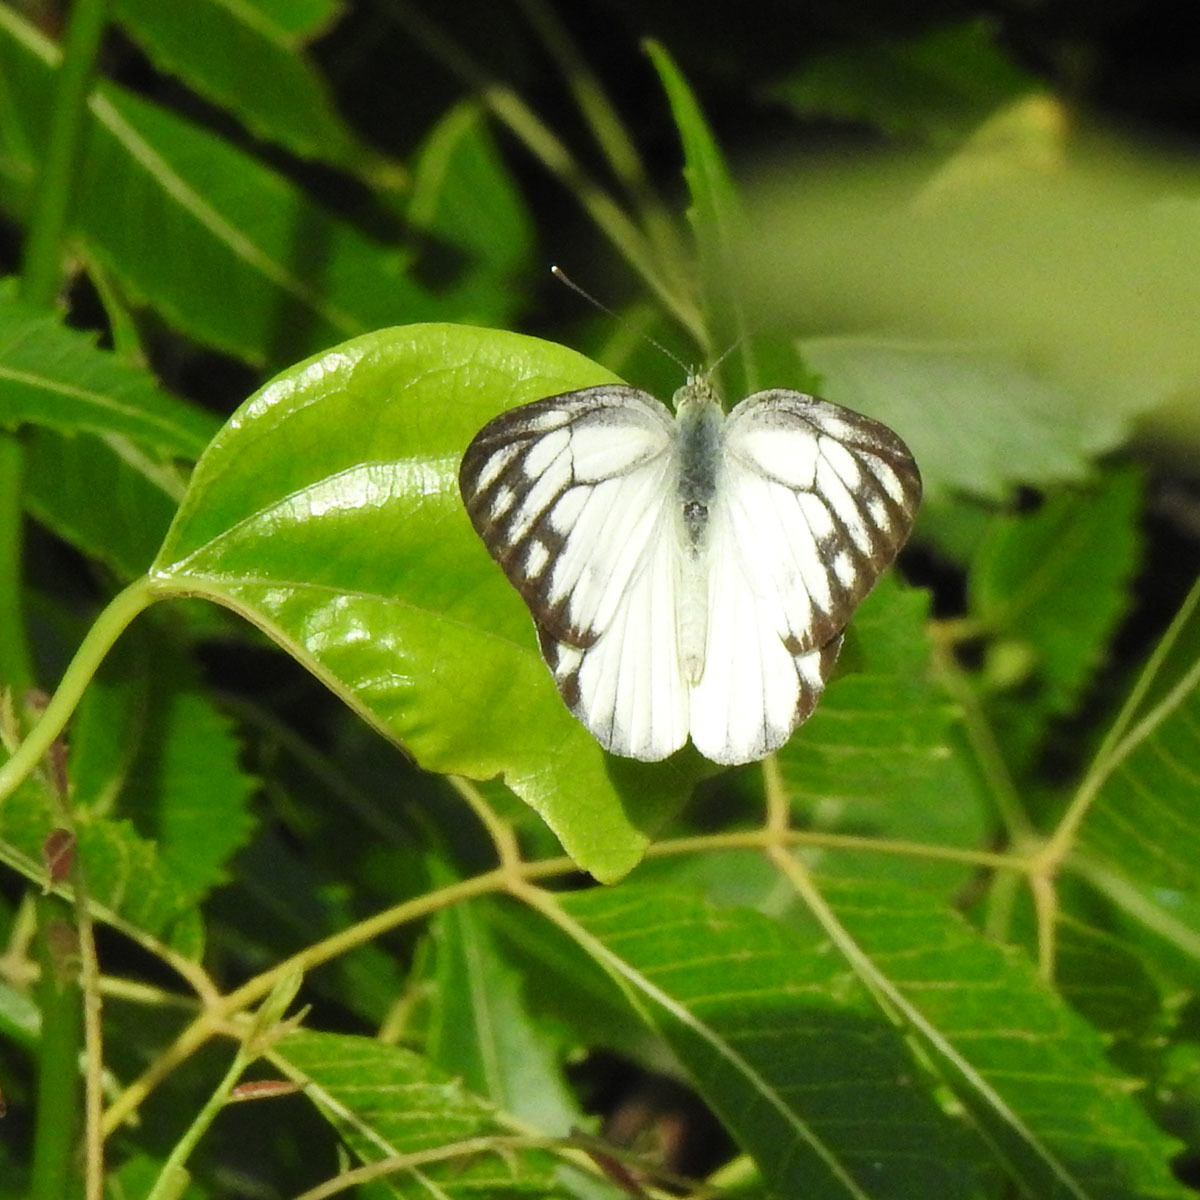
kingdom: Animalia
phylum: Arthropoda
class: Insecta
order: Lepidoptera
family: Pieridae
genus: Cepora
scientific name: Cepora nerissa
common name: Common gull
